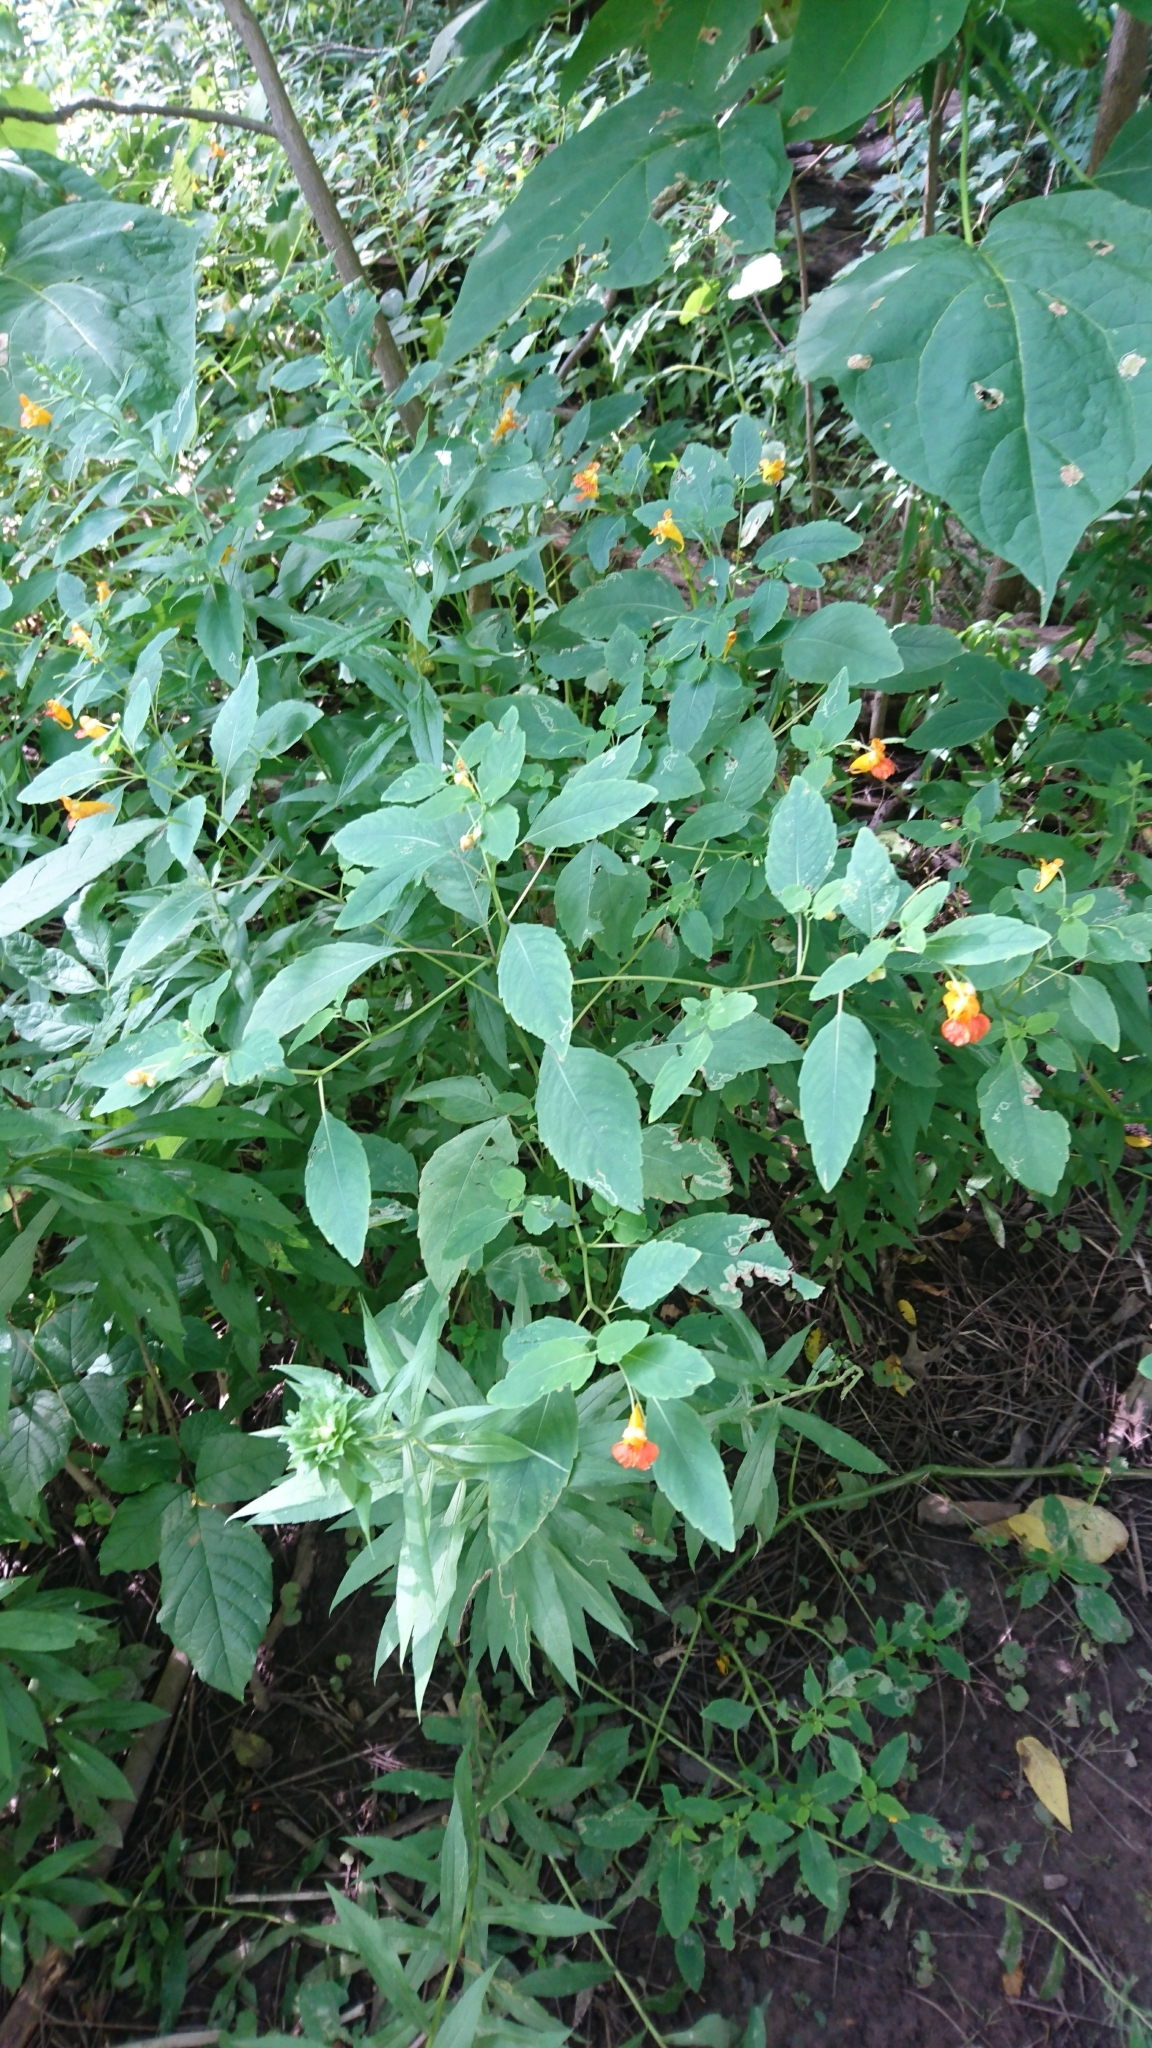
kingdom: Plantae
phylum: Tracheophyta
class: Magnoliopsida
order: Ericales
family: Balsaminaceae
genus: Impatiens
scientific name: Impatiens capensis
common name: Orange balsam
